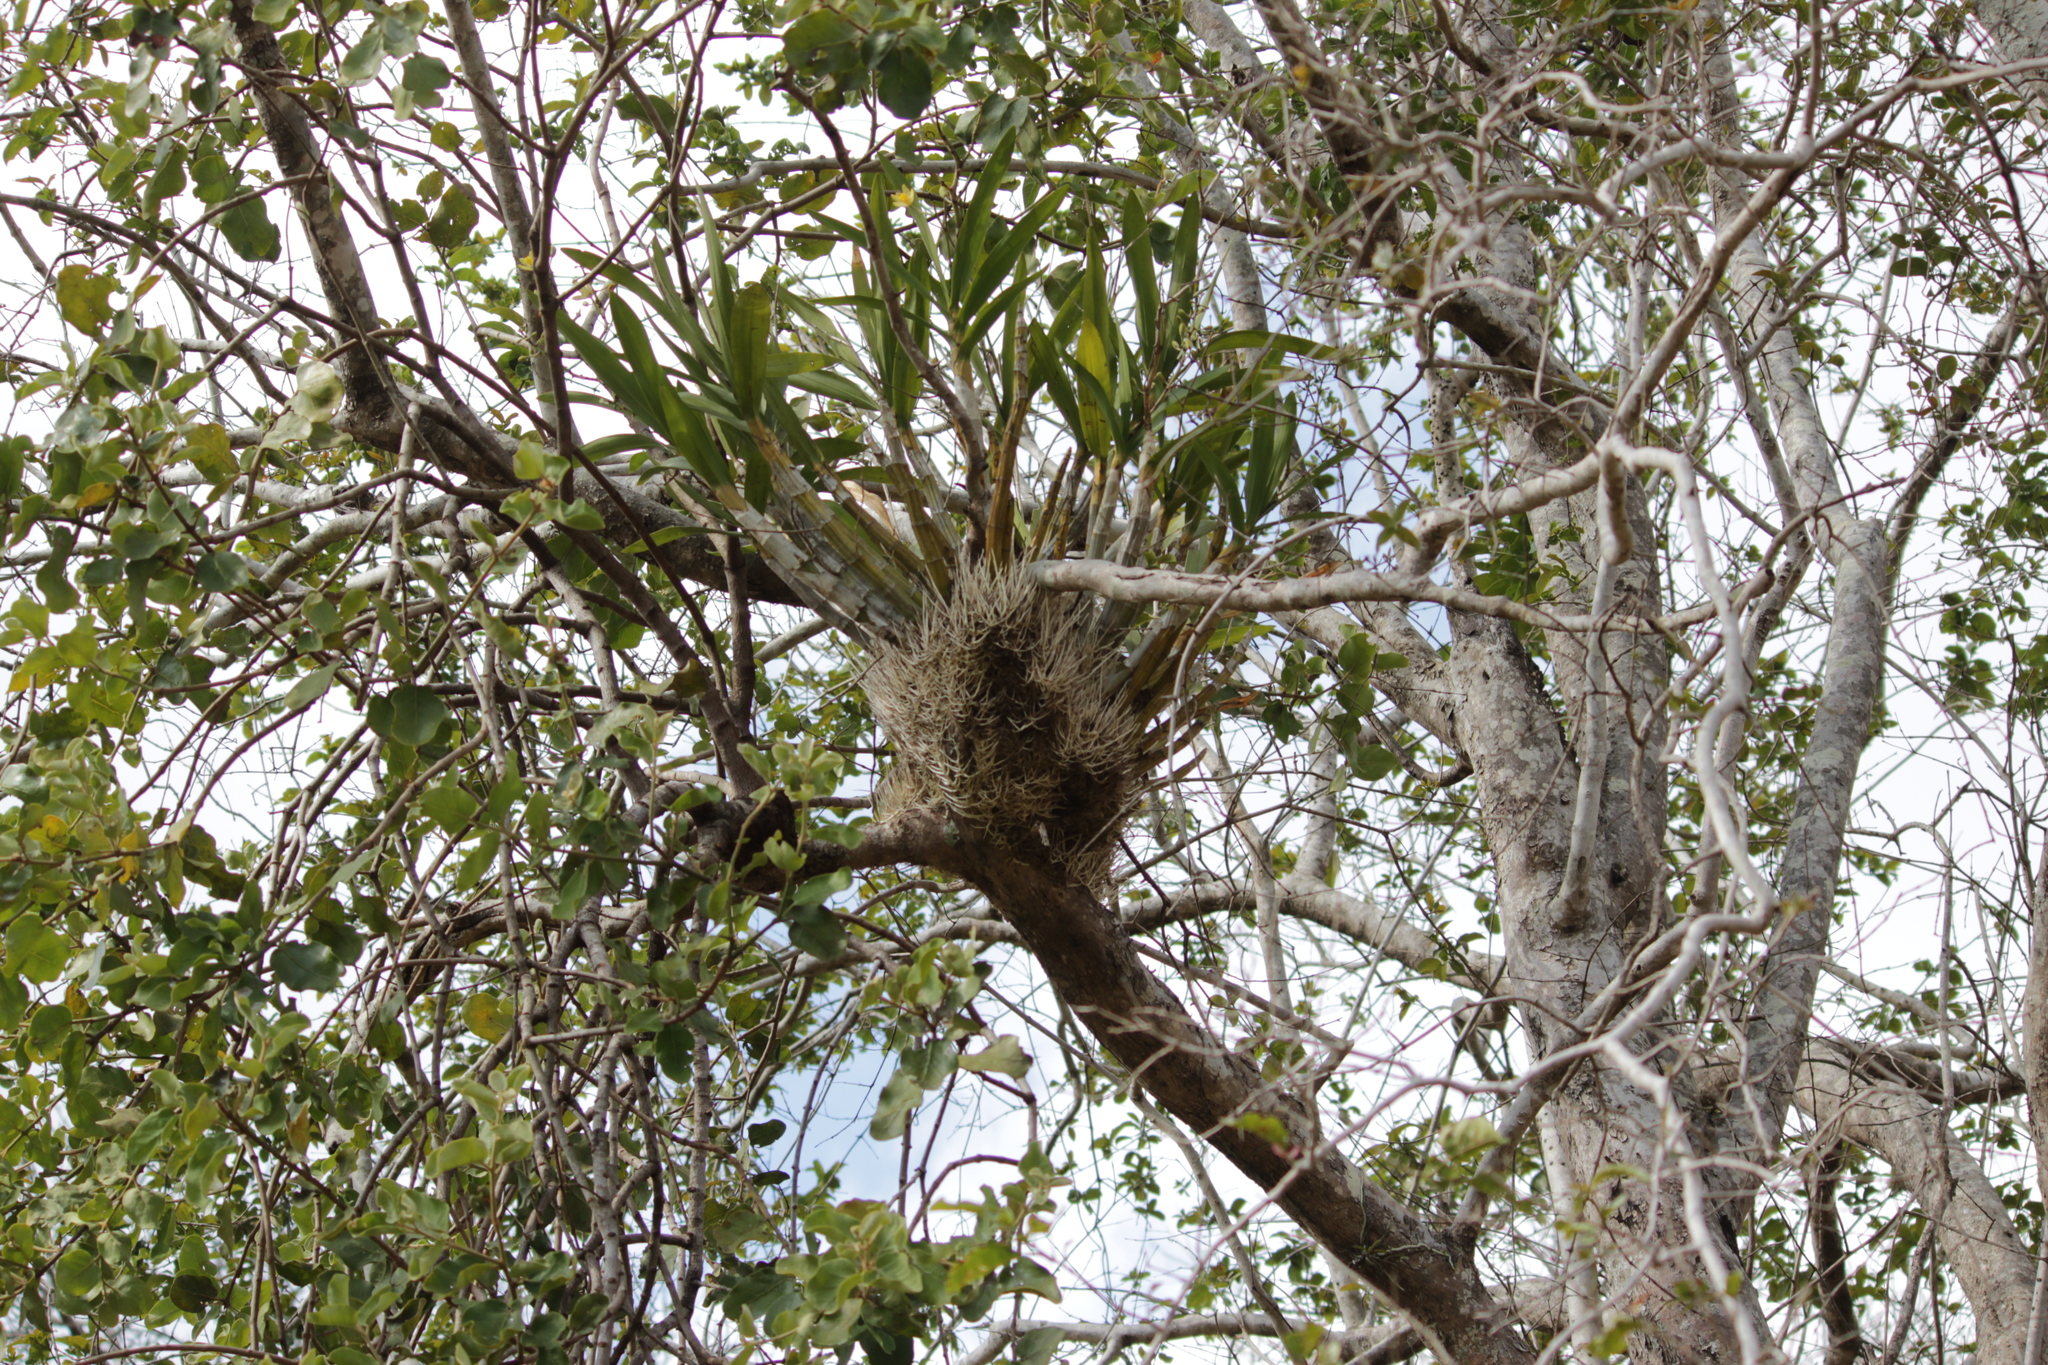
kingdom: Plantae
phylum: Tracheophyta
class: Liliopsida
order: Asparagales
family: Orchidaceae
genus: Ansellia
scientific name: Ansellia africana
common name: African ansellia
